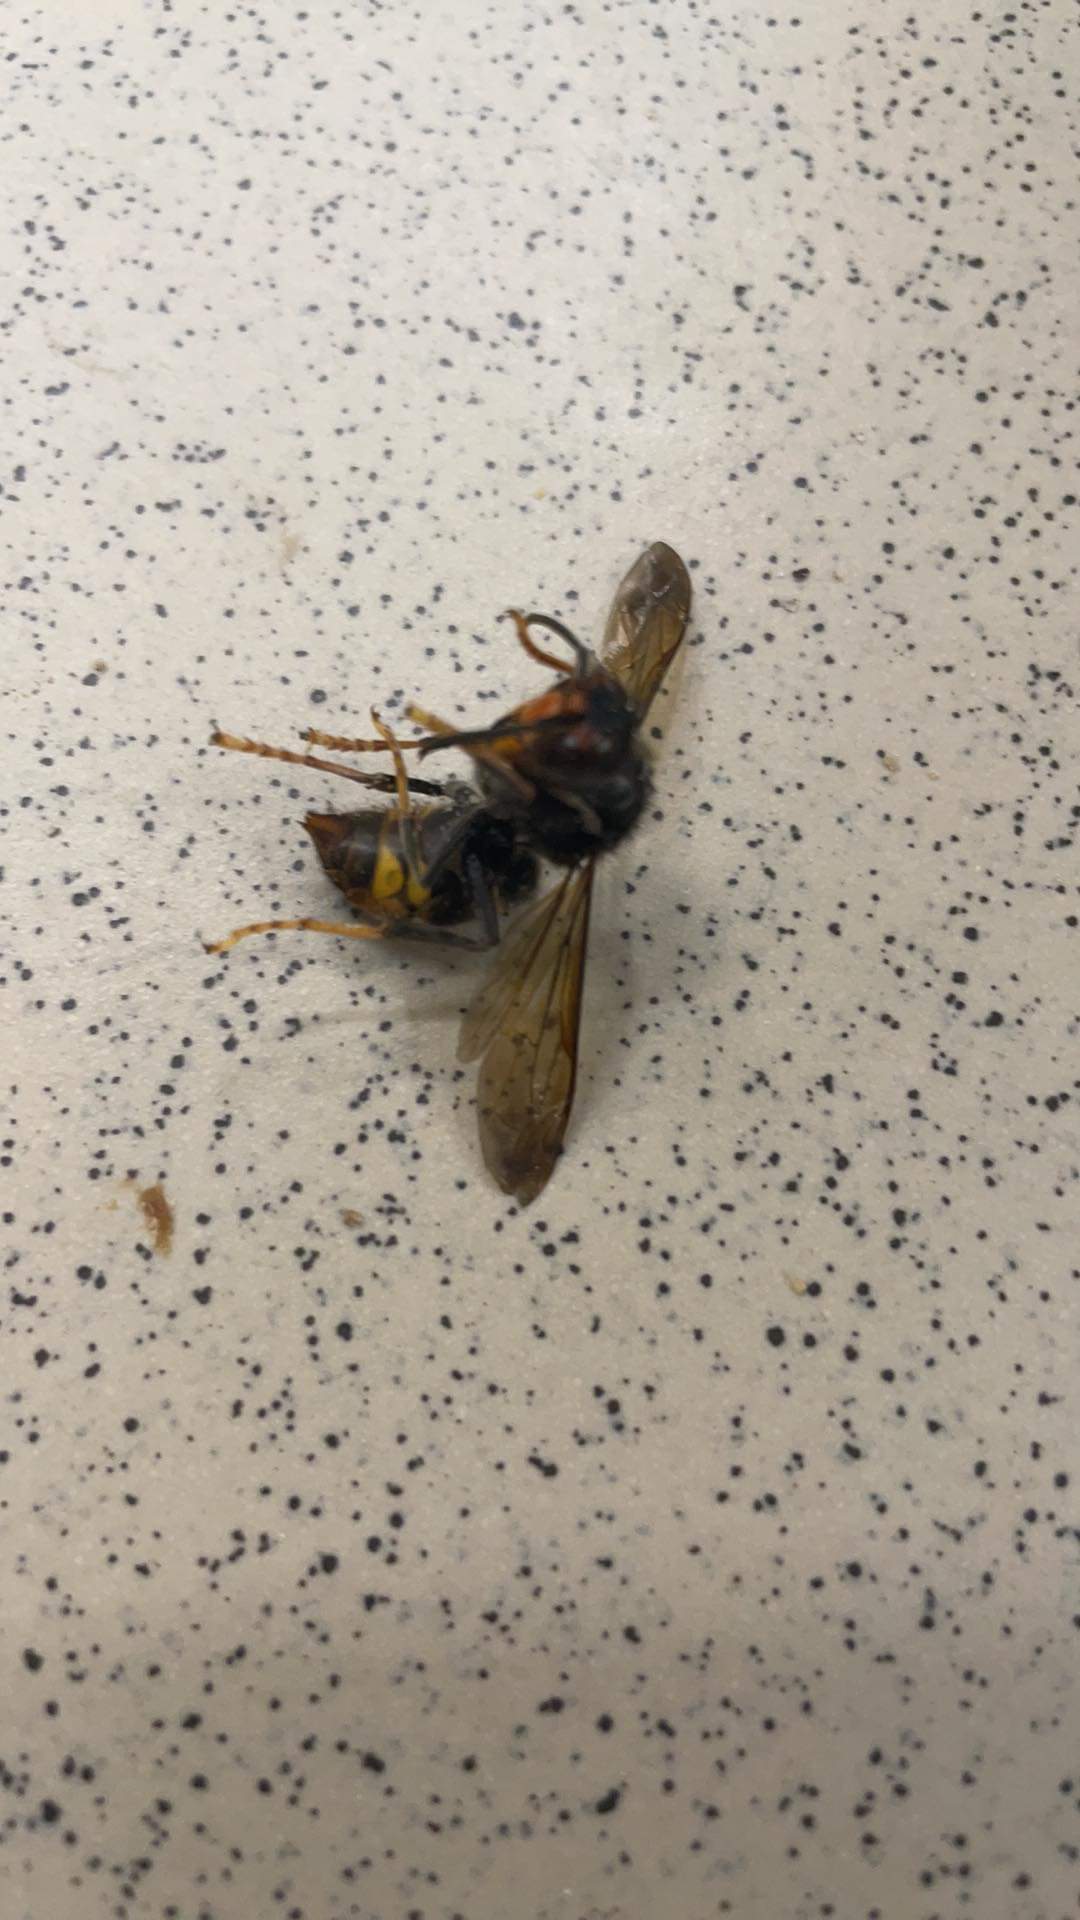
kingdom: Animalia
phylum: Arthropoda
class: Insecta
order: Hymenoptera
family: Vespidae
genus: Vespa
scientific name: Vespa velutina
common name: Asian hornet
